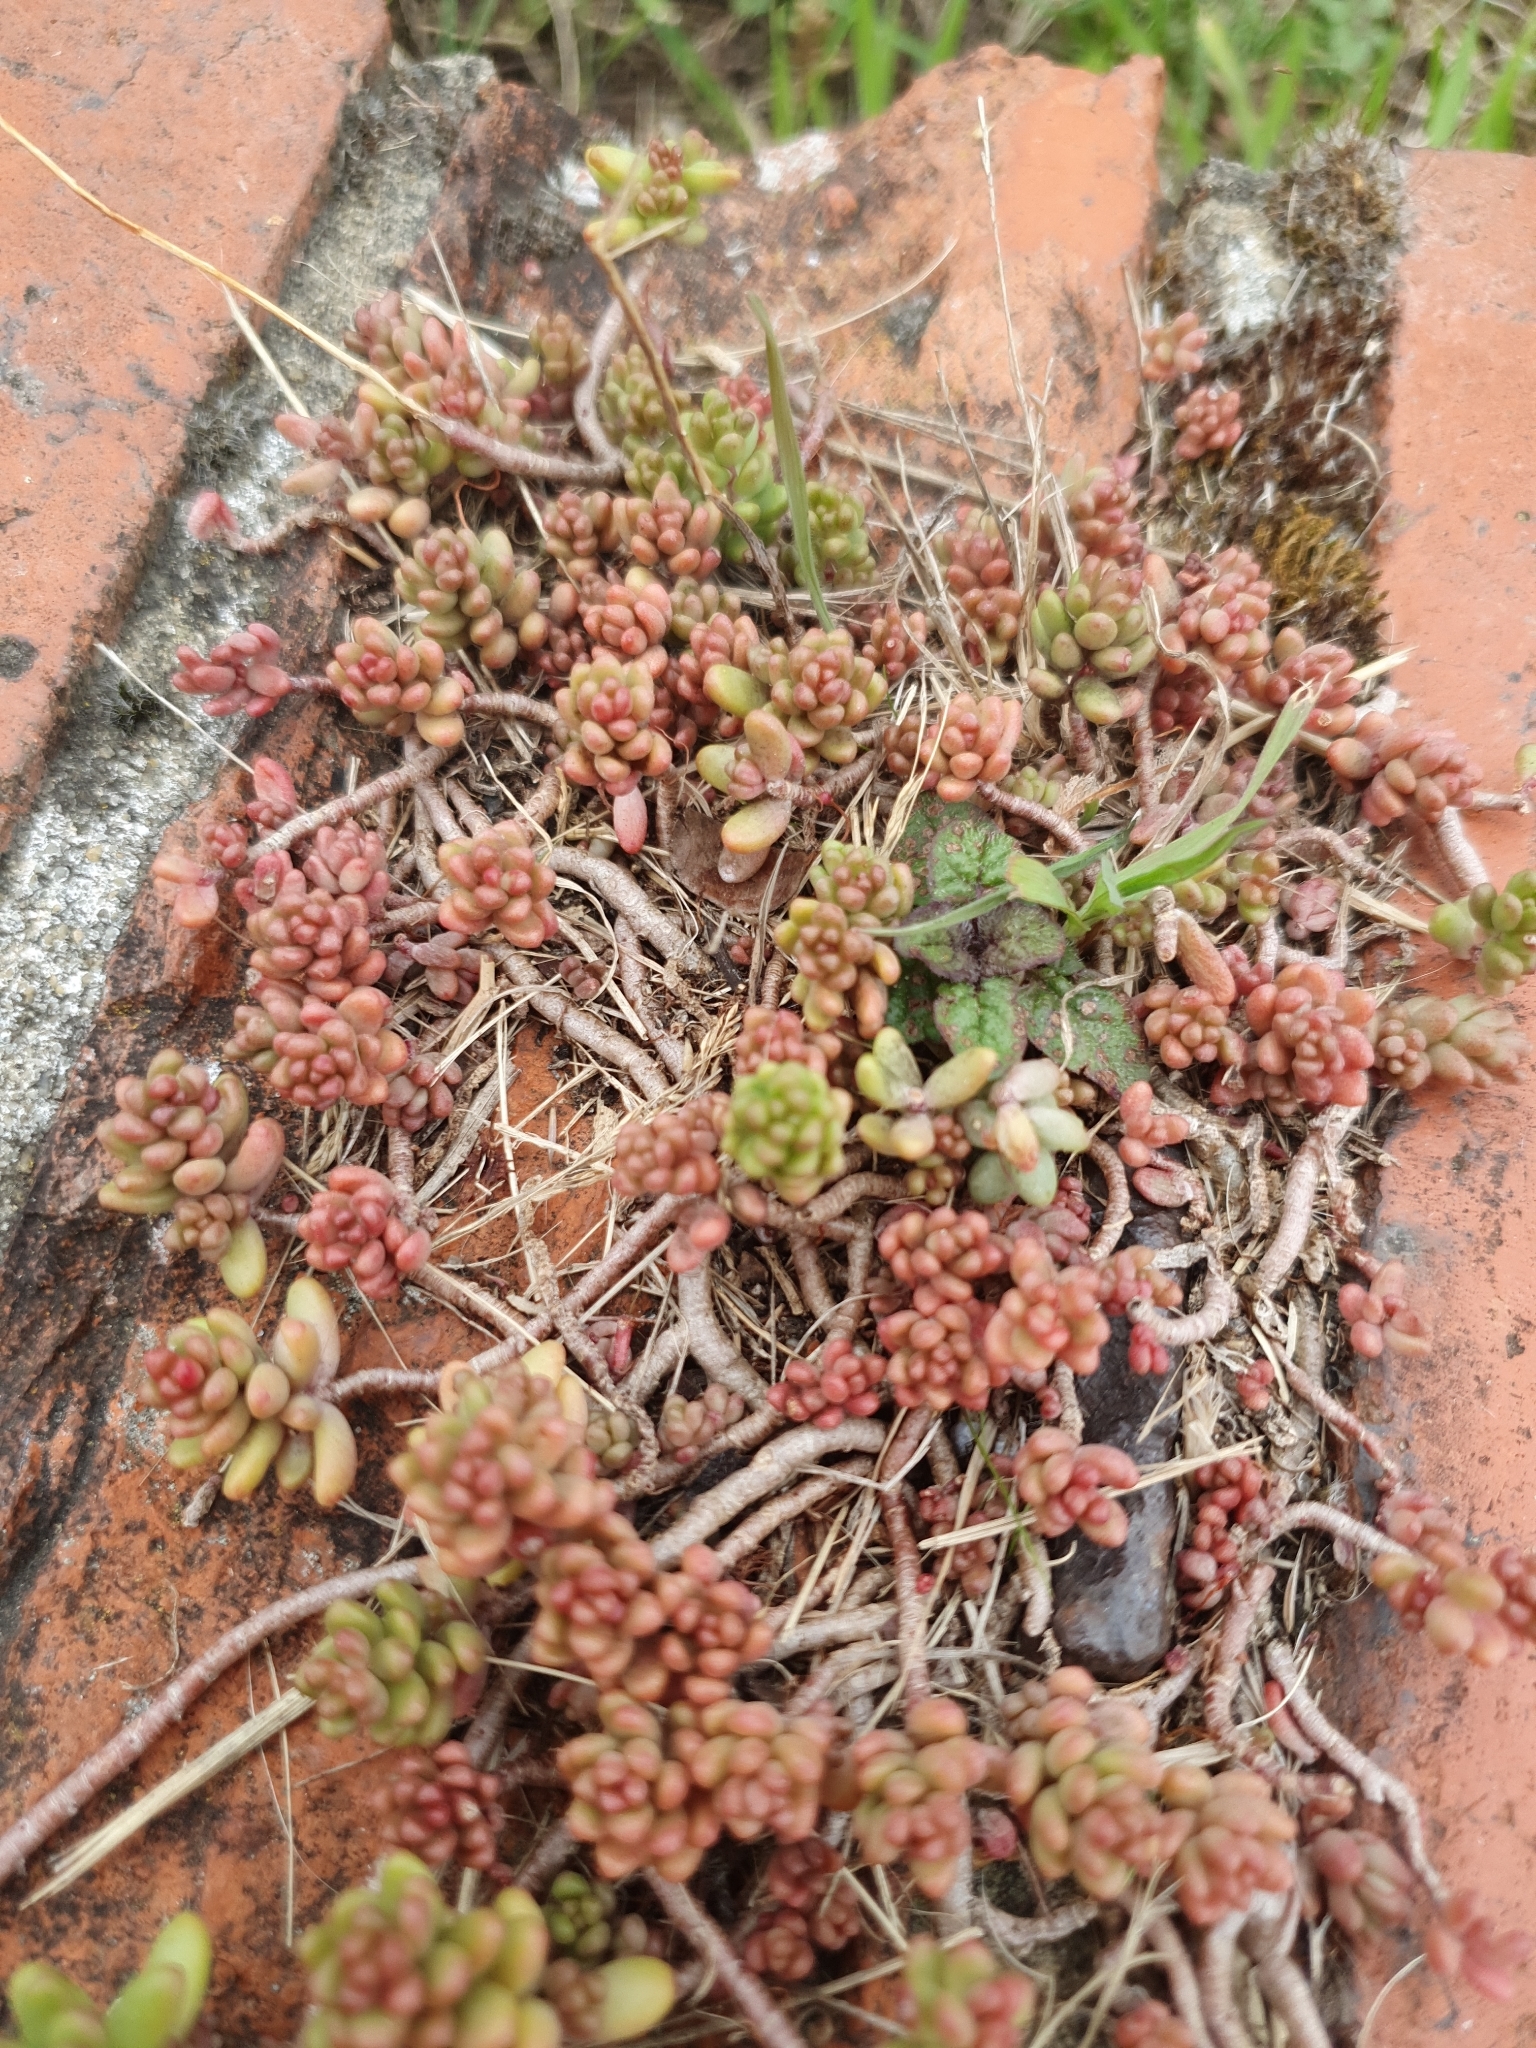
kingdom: Plantae
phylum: Tracheophyta
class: Magnoliopsida
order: Saxifragales
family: Crassulaceae
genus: Sedum
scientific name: Sedum album
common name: White stonecrop
